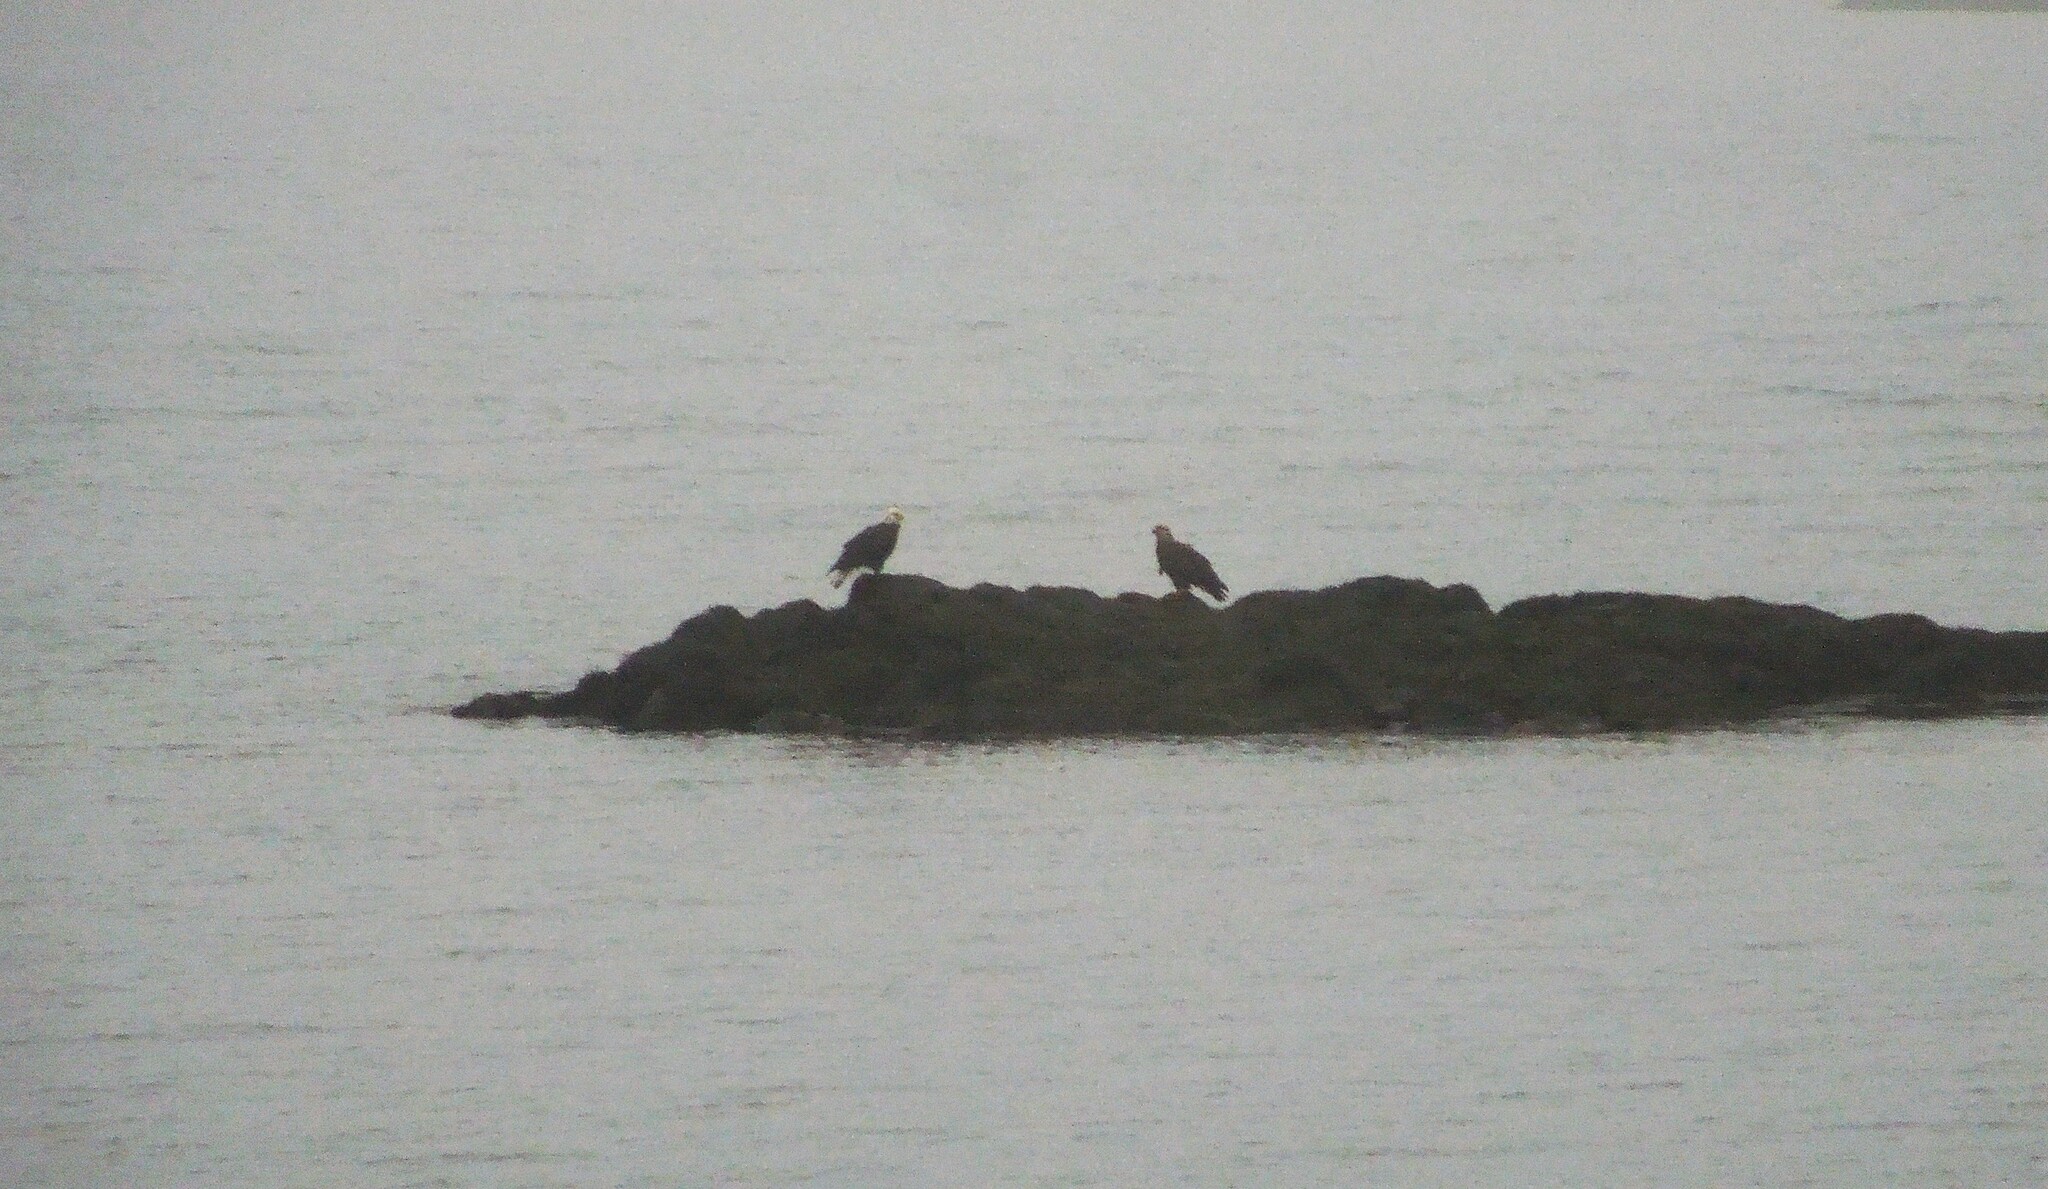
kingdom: Animalia
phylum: Chordata
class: Aves
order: Accipitriformes
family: Accipitridae
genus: Haliaeetus
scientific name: Haliaeetus leucocephalus
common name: Bald eagle
